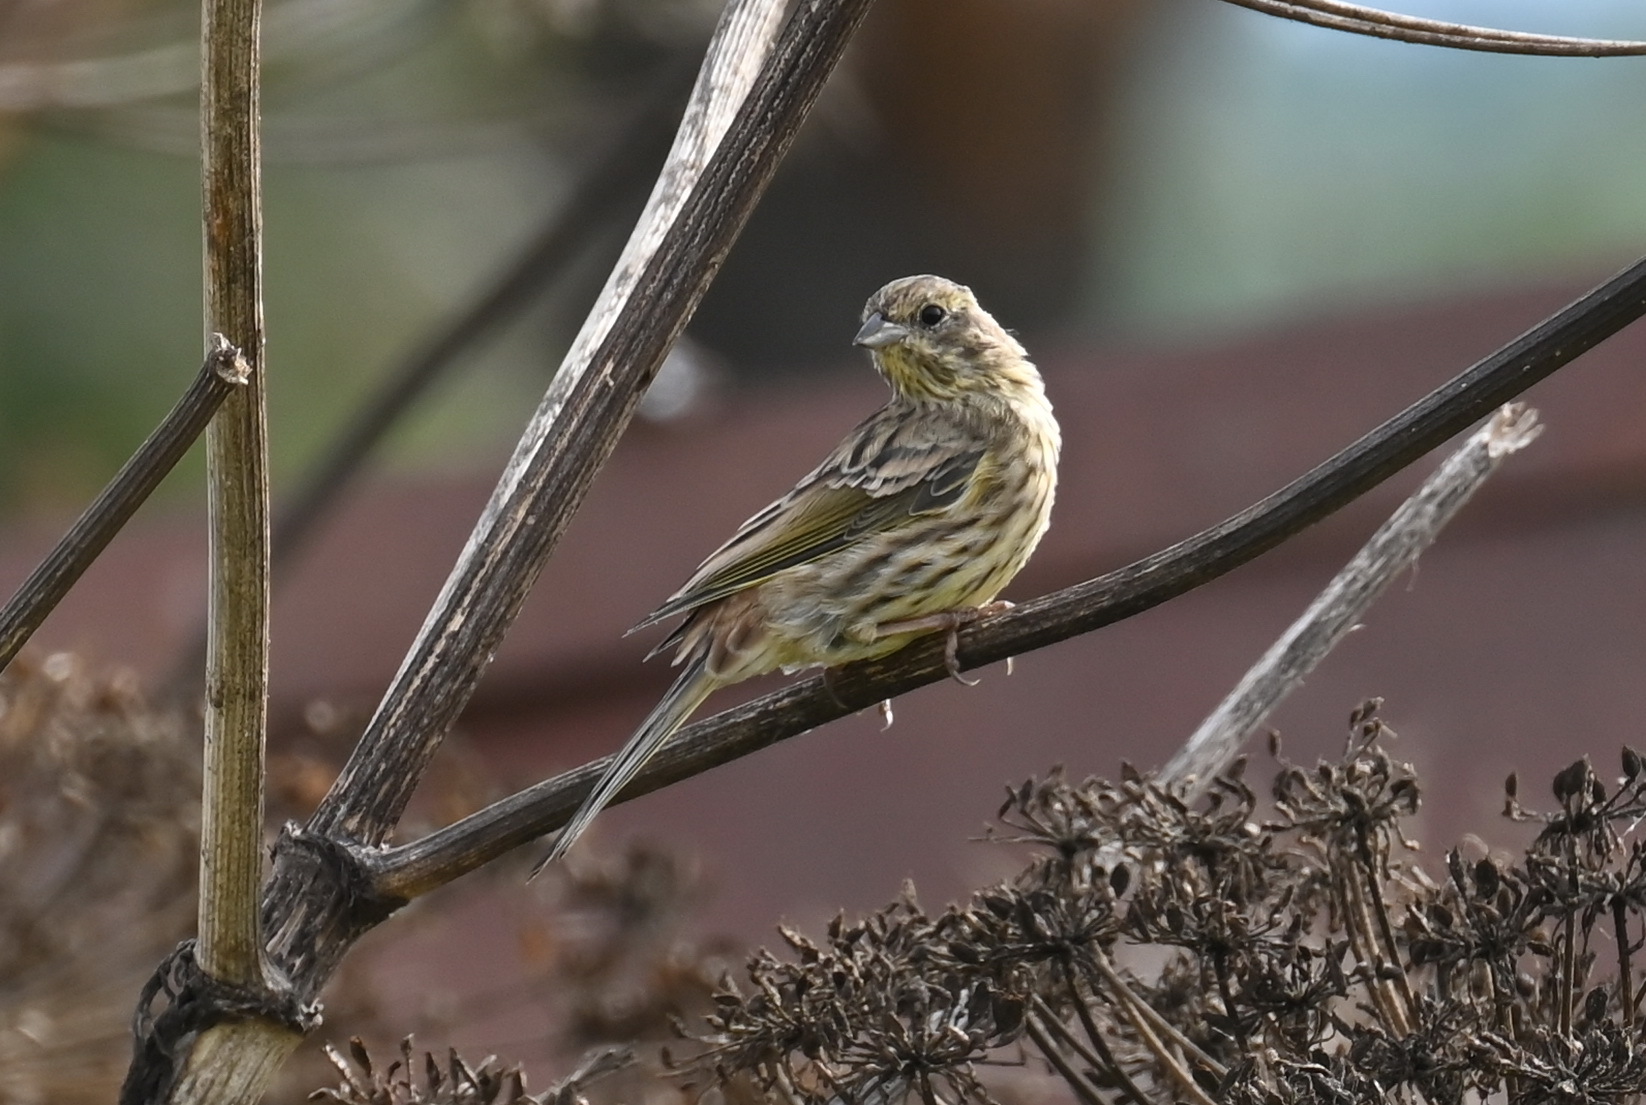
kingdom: Animalia
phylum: Chordata
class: Aves
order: Passeriformes
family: Emberizidae
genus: Emberiza
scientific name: Emberiza citrinella
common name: Yellowhammer
